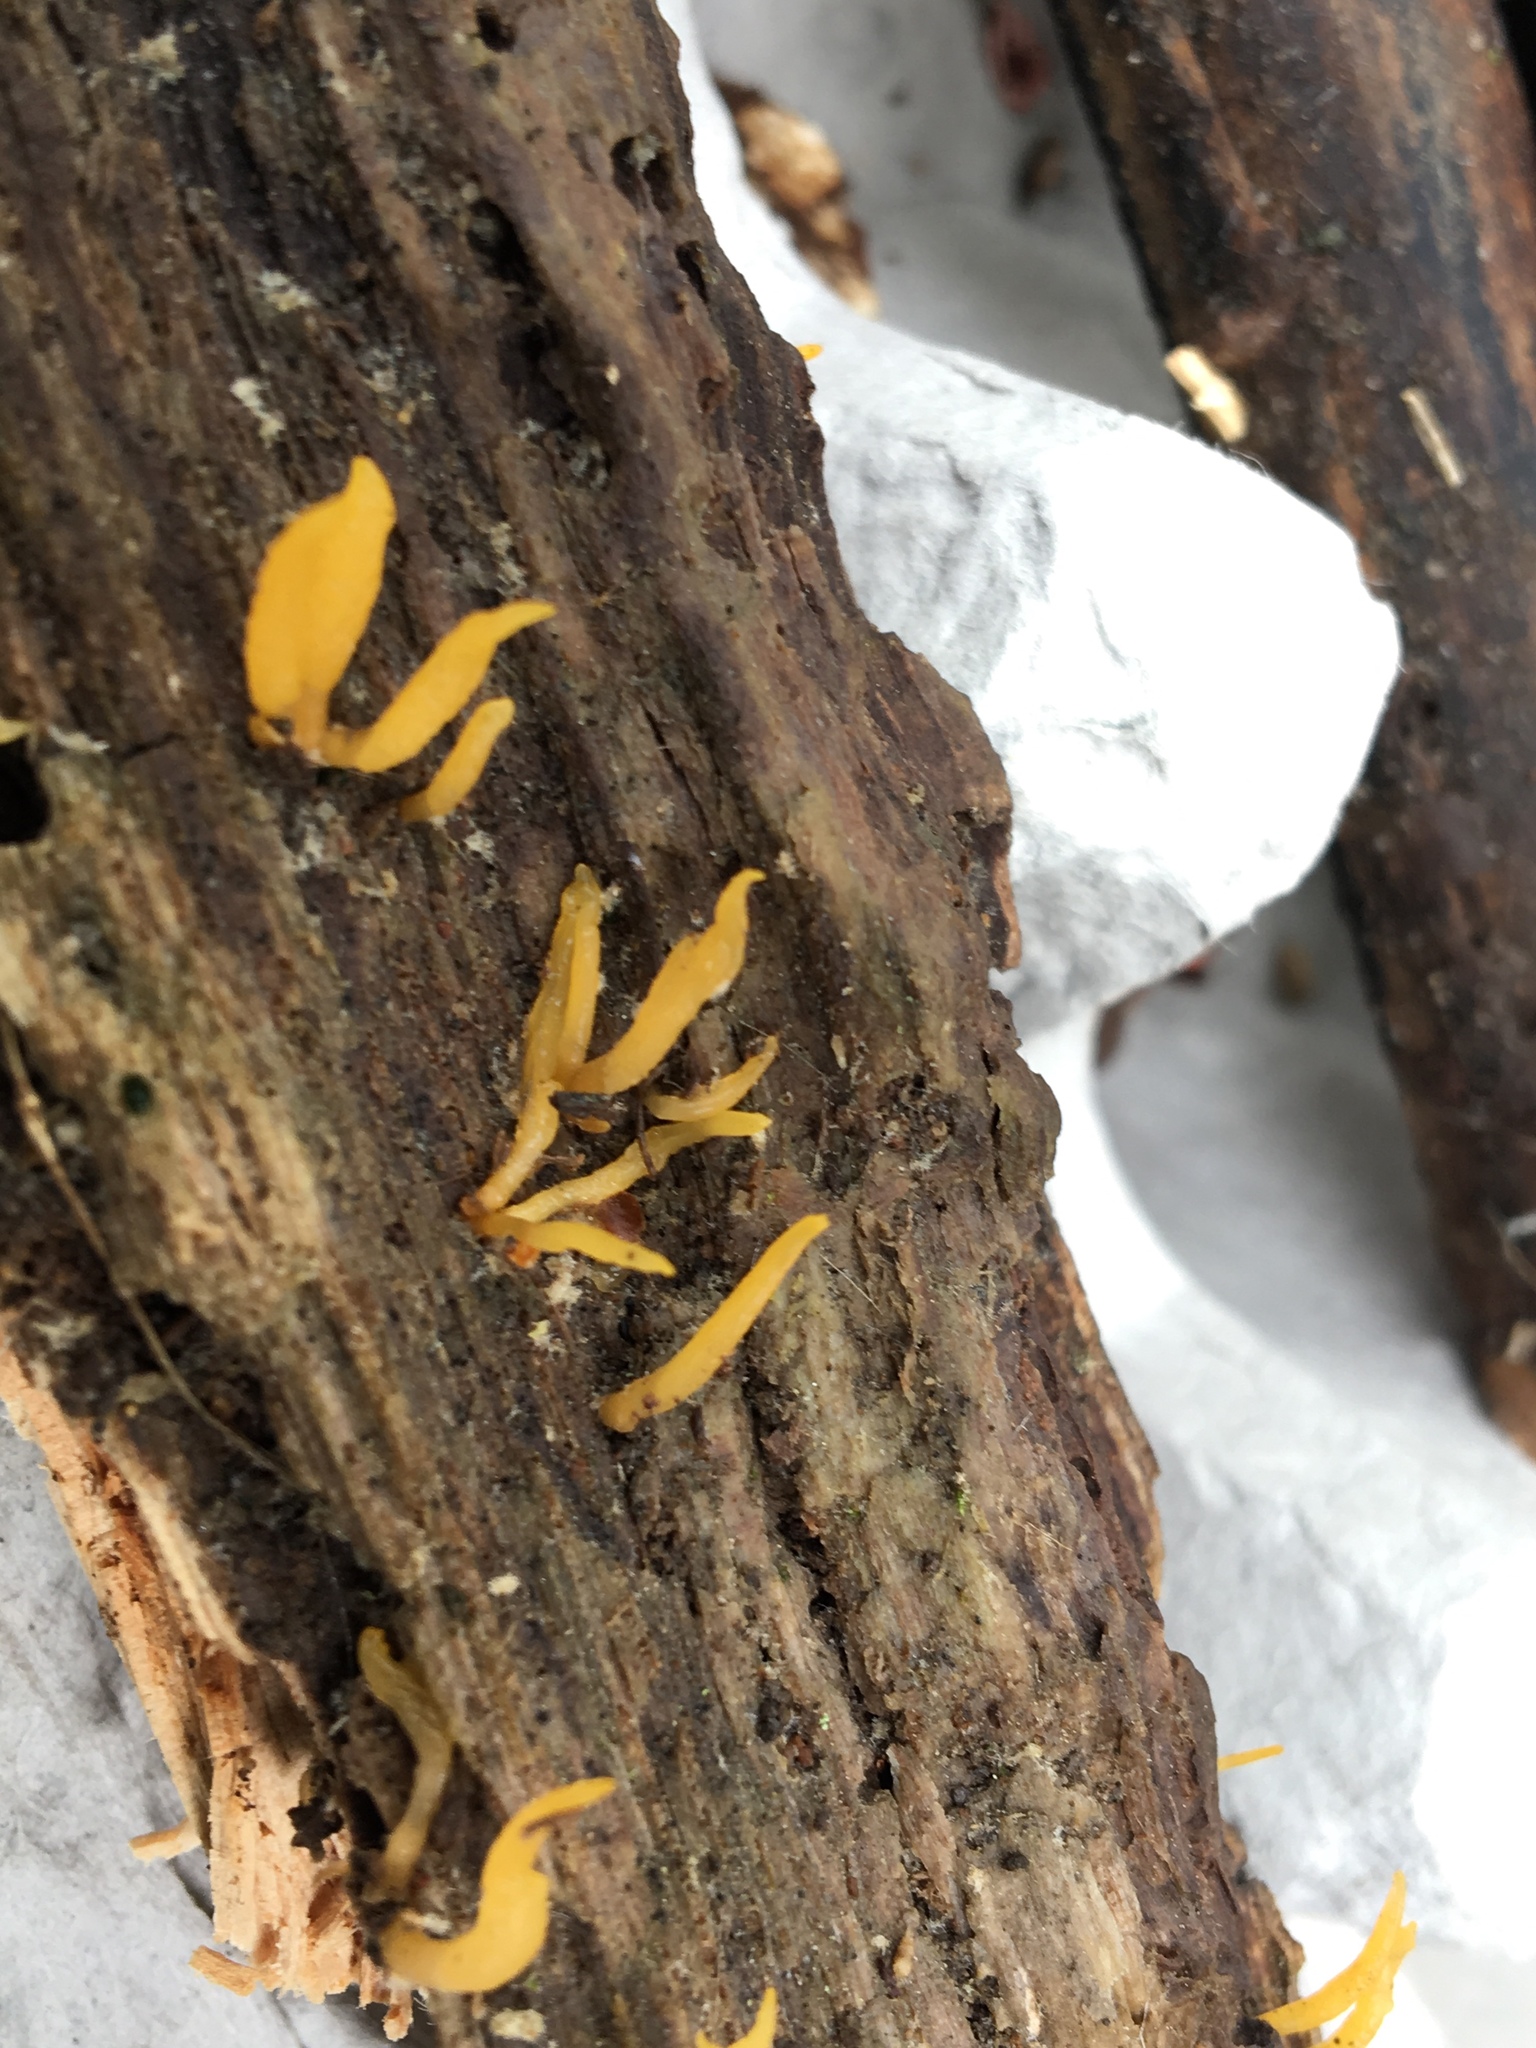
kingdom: Fungi
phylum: Basidiomycota
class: Dacrymycetes
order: Dacrymycetales
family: Dacrymycetaceae
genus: Calocera
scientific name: Calocera cornea
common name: Small stagshorn
